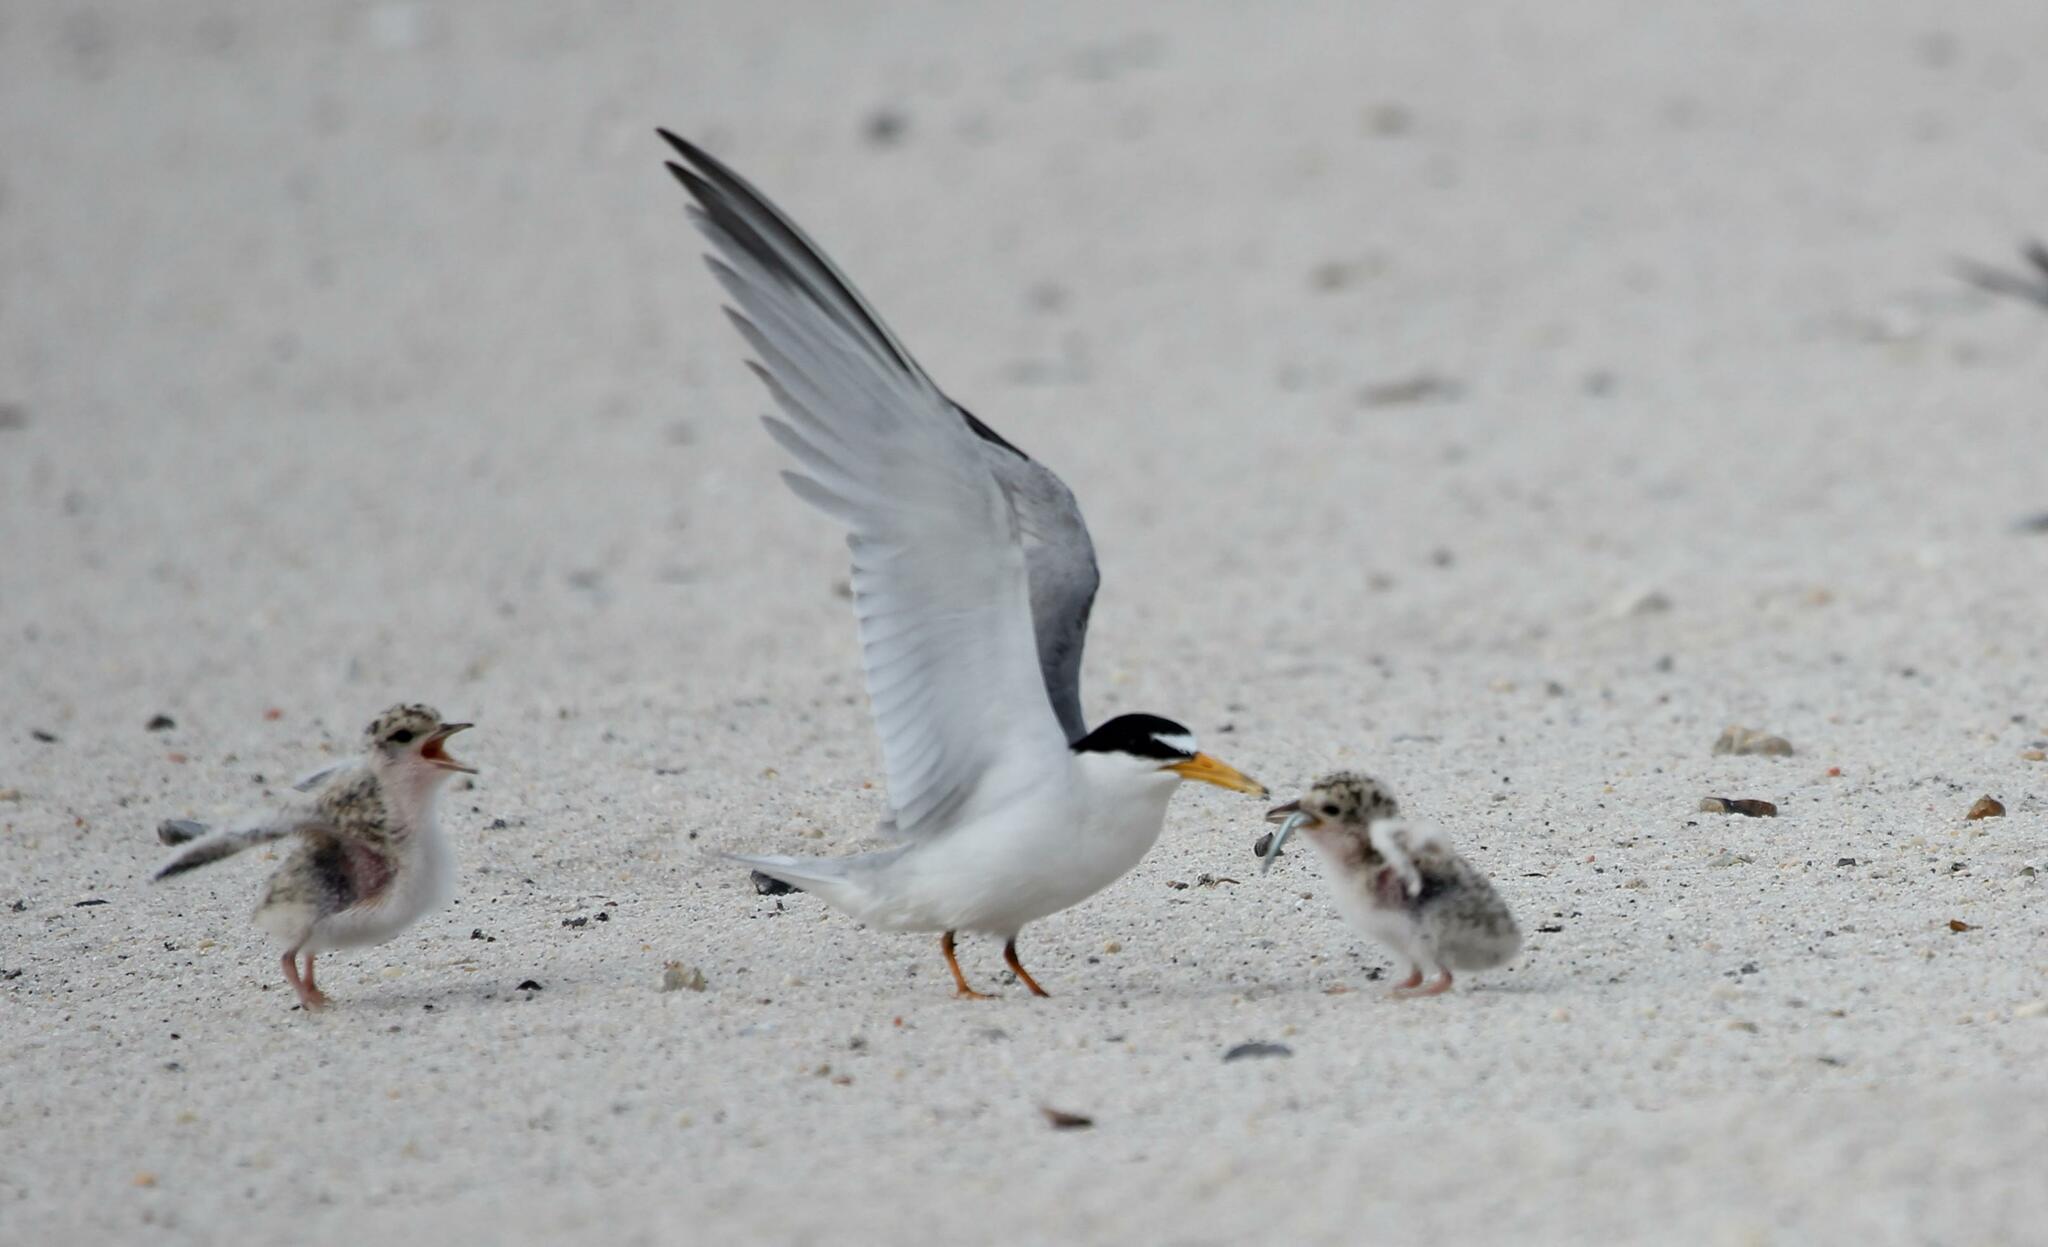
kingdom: Animalia
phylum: Chordata
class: Aves
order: Charadriiformes
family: Laridae
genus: Sternula
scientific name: Sternula antillarum
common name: Least tern
